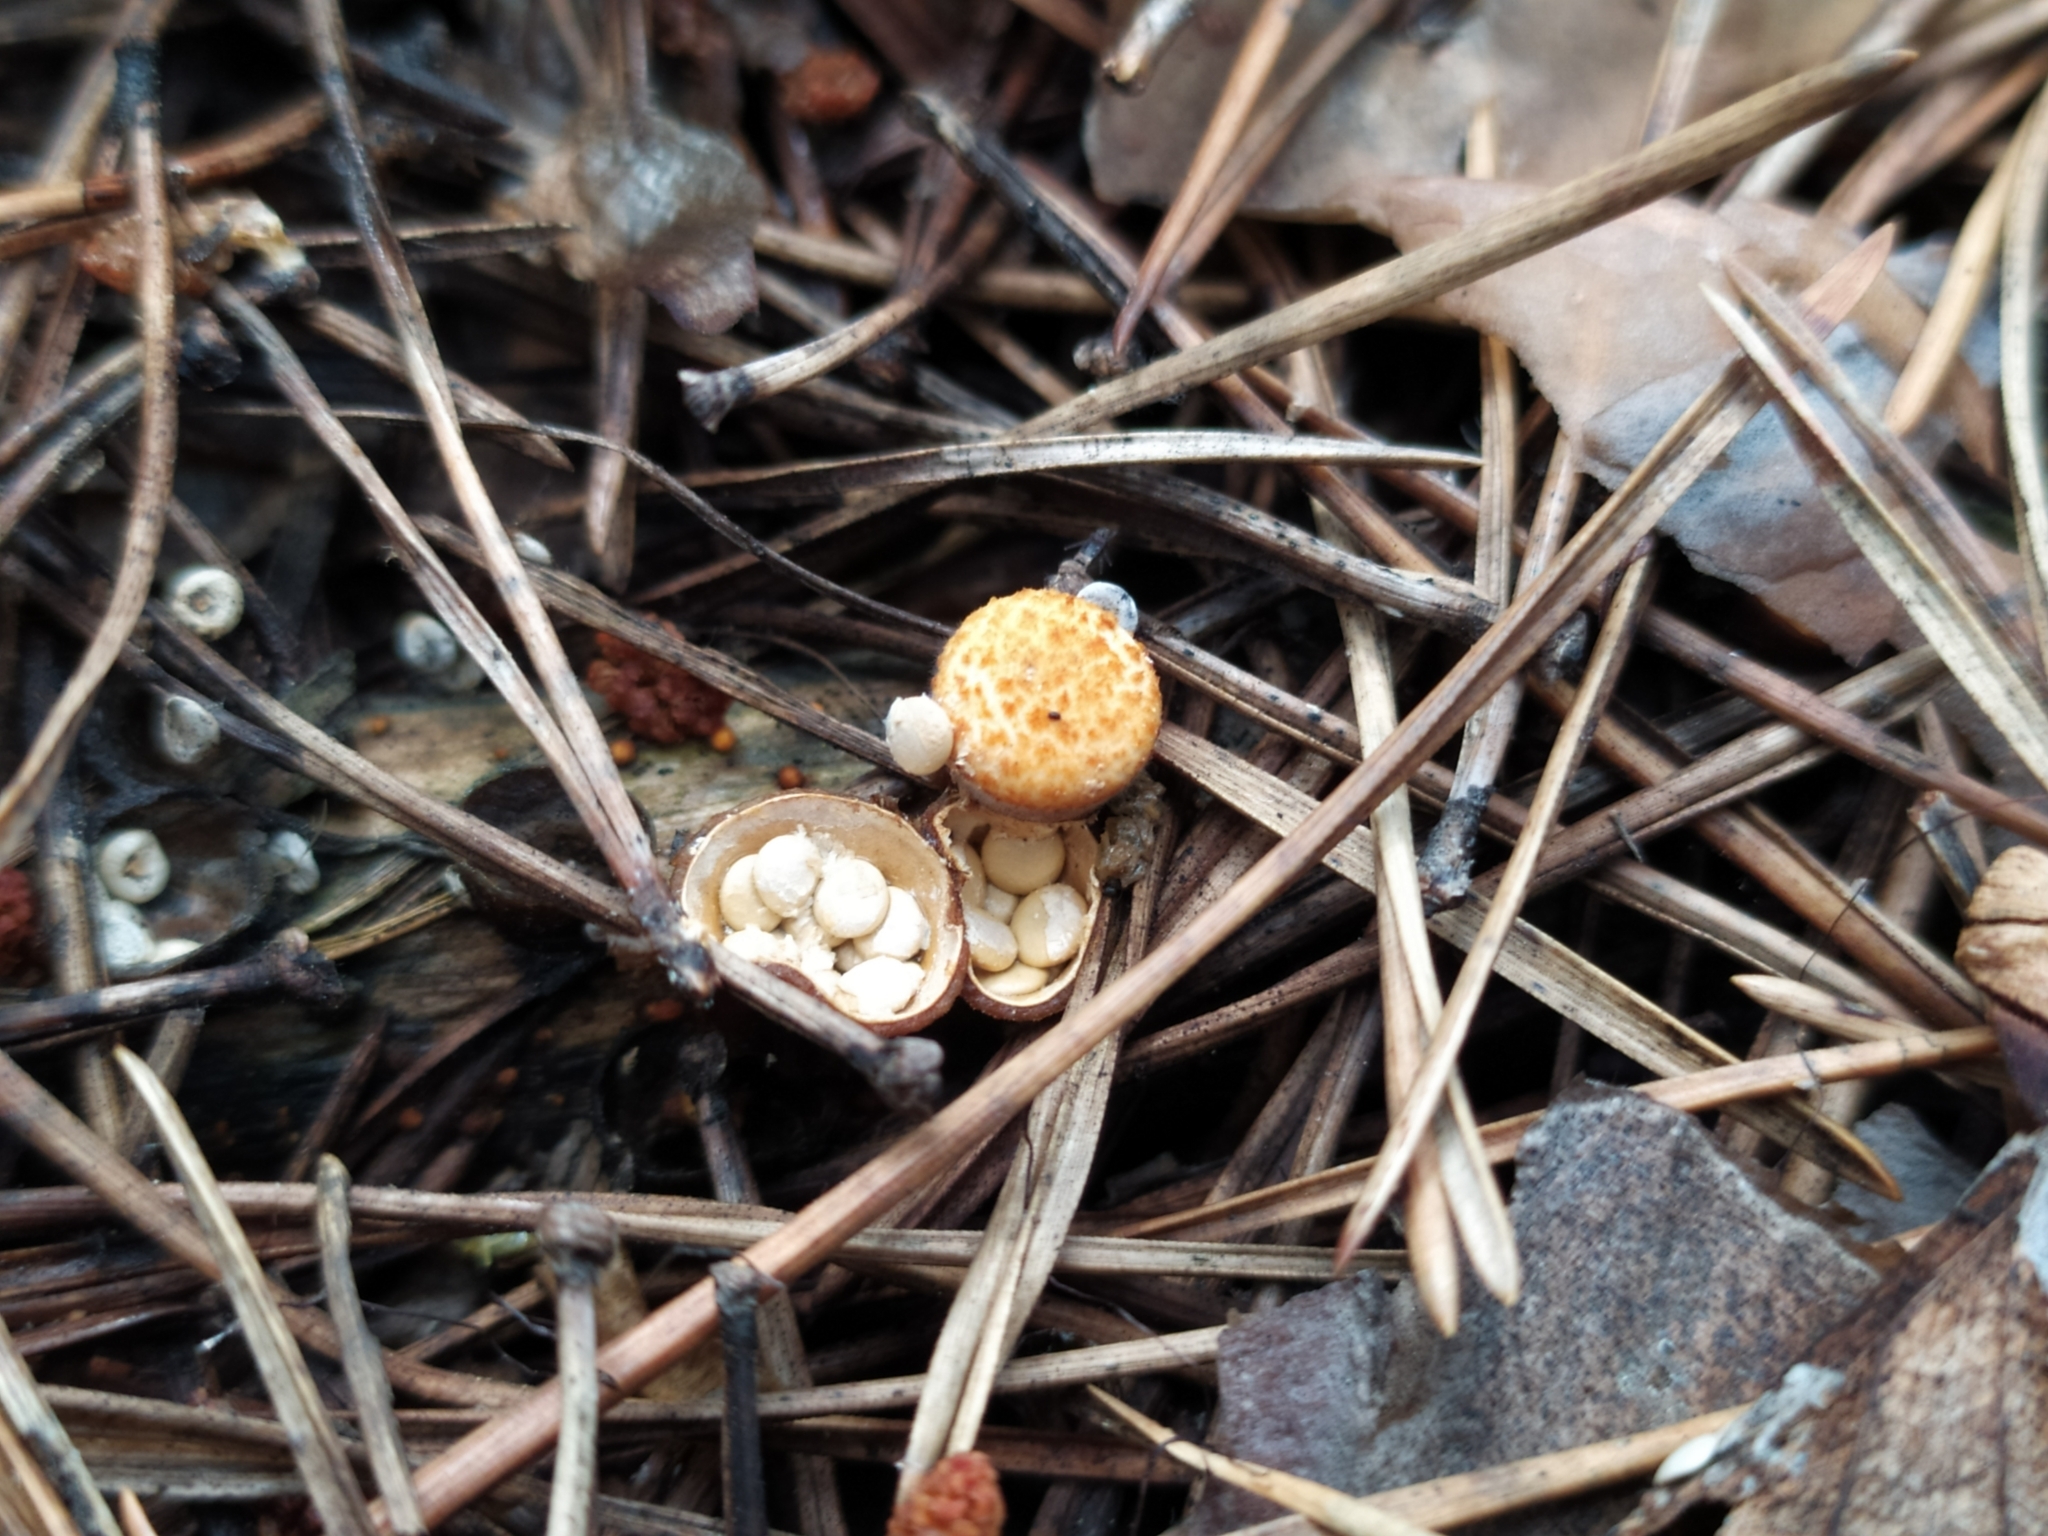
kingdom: Fungi
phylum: Basidiomycota
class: Agaricomycetes
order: Agaricales
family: Nidulariaceae
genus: Crucibulum
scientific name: Crucibulum laeve
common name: Common bird's nest
